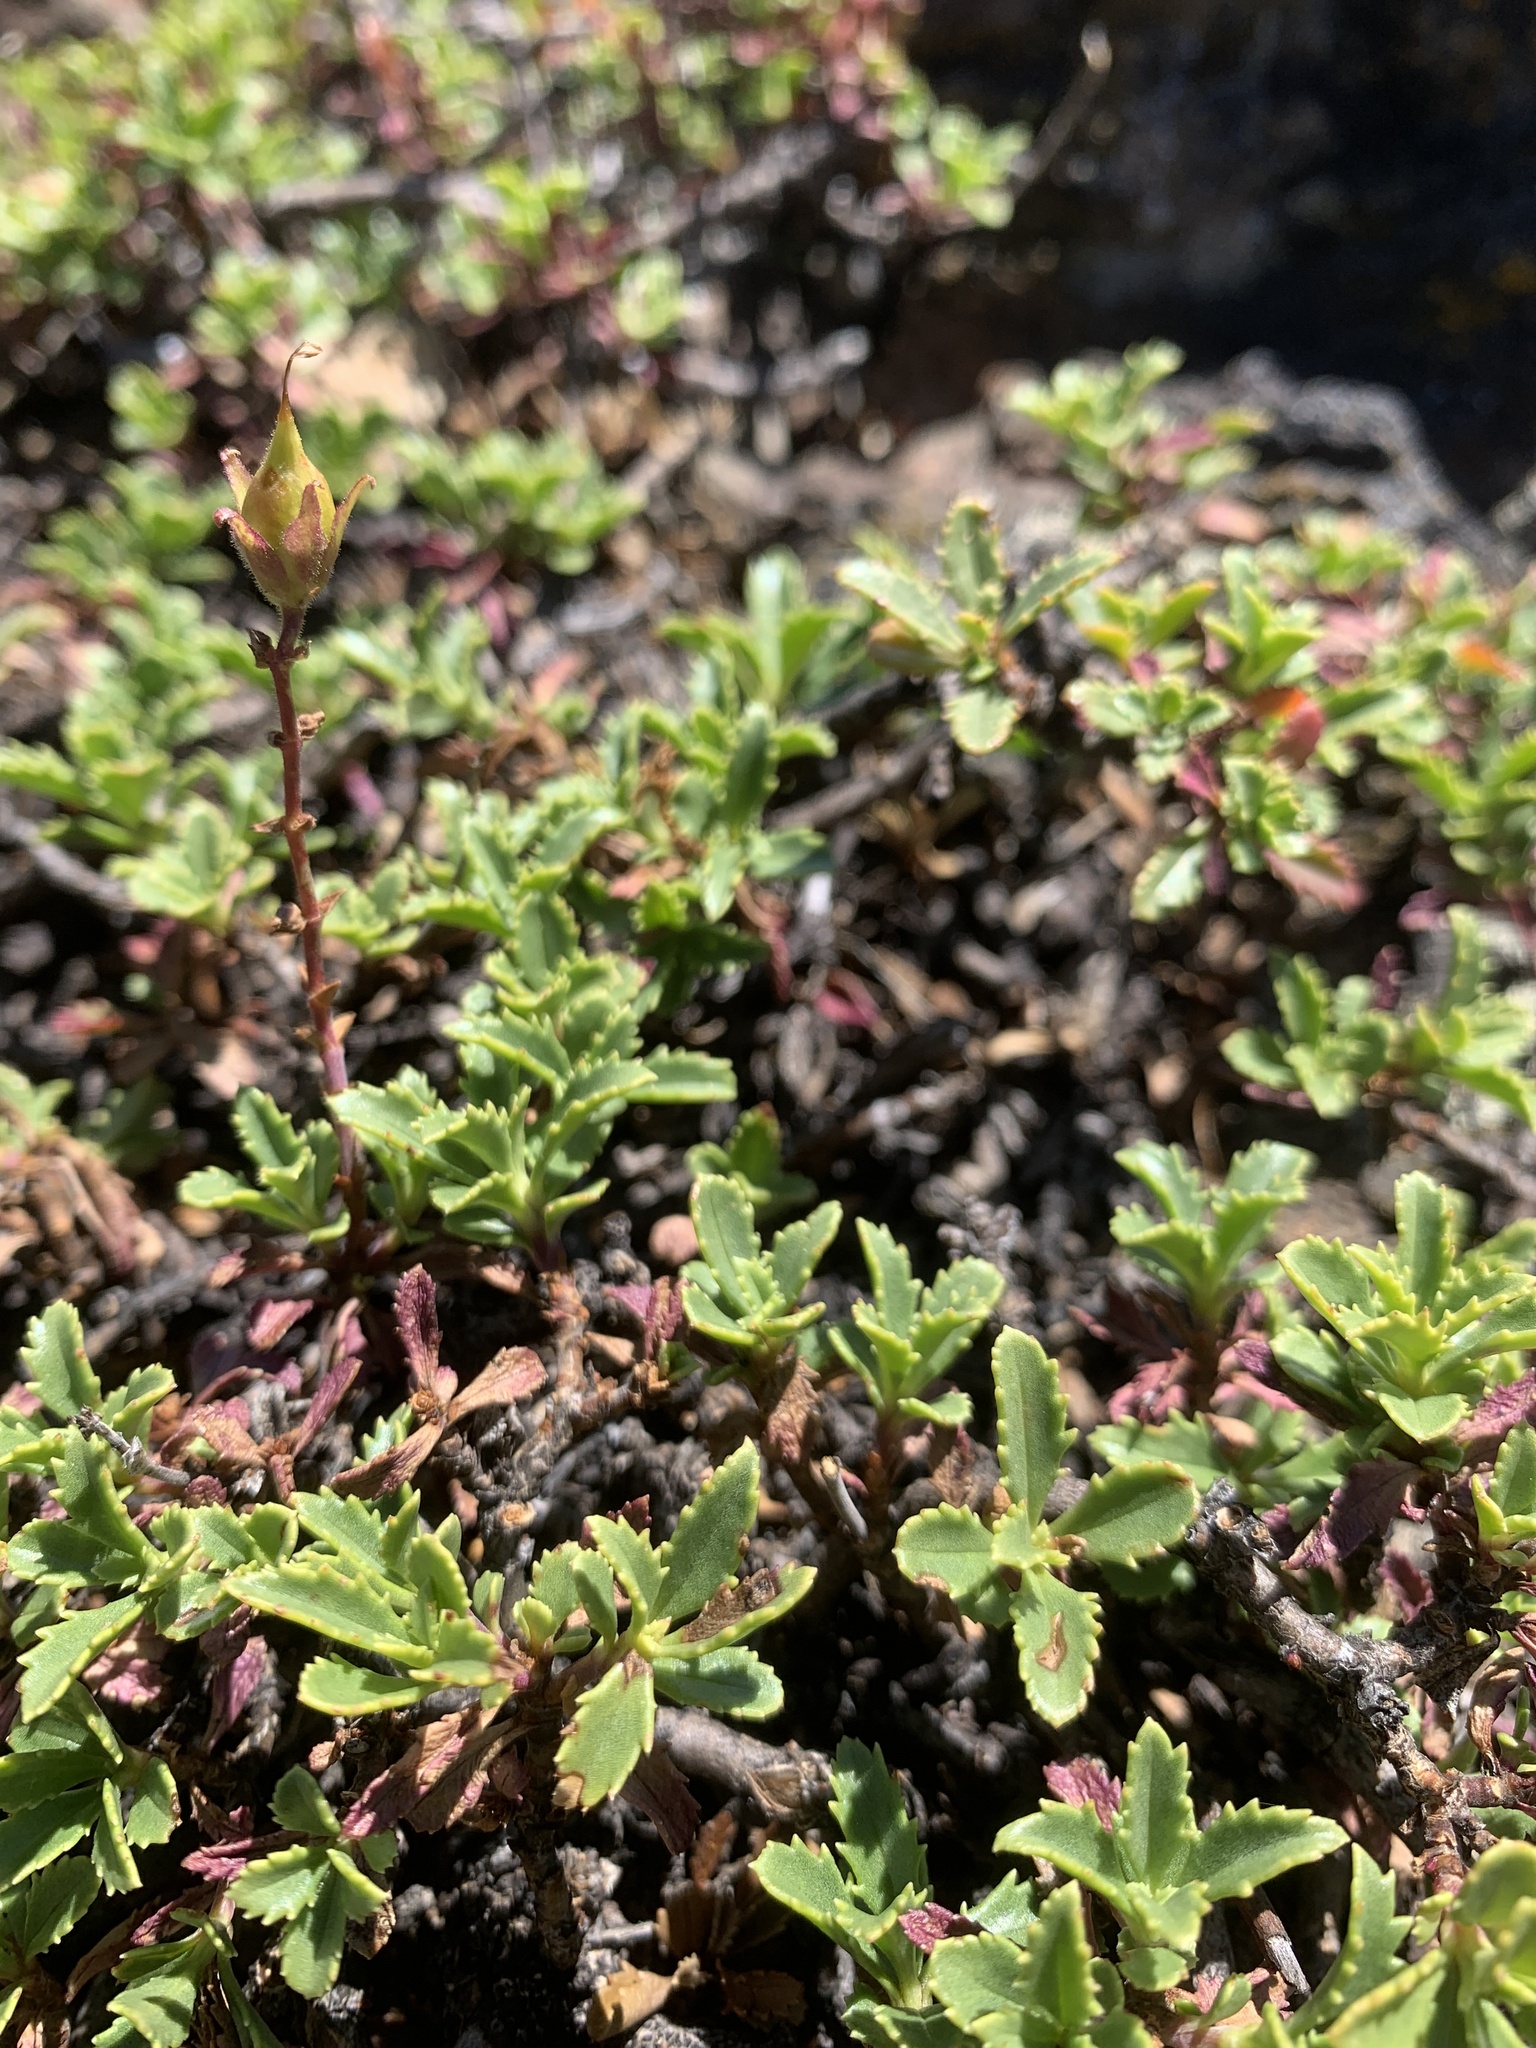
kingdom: Plantae
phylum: Tracheophyta
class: Magnoliopsida
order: Lamiales
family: Plantaginaceae
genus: Penstemon
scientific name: Penstemon fruticosus
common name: Bush penstemon
